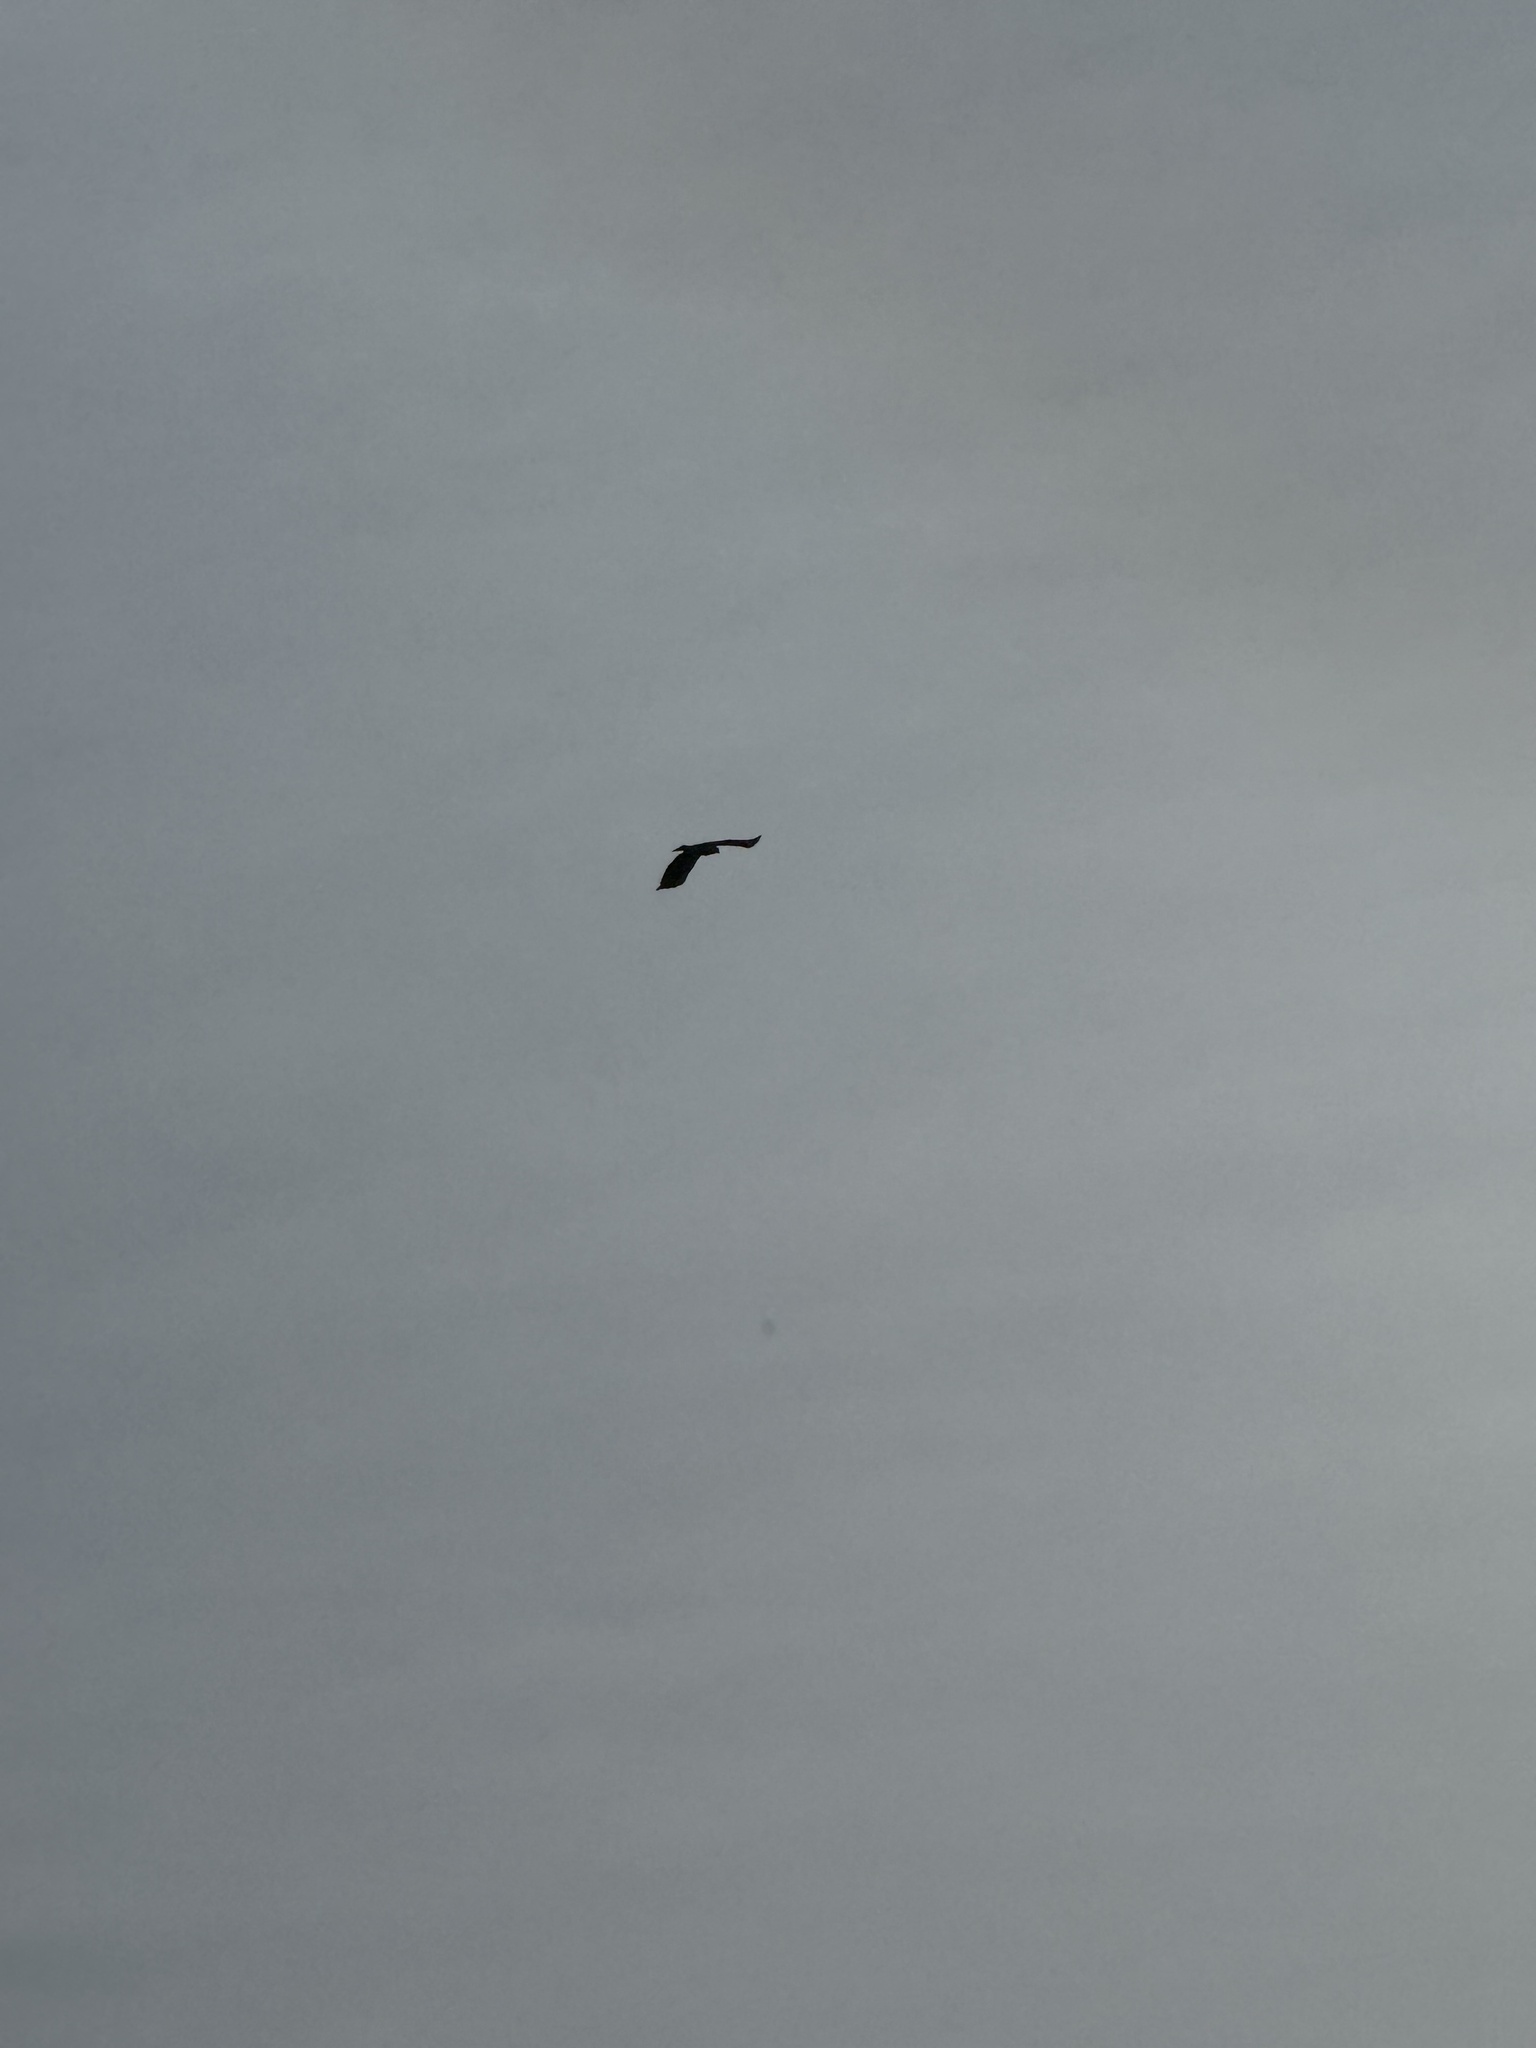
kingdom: Animalia
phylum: Chordata
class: Aves
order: Accipitriformes
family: Accipitridae
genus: Buteo
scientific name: Buteo jamaicensis
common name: Red-tailed hawk
